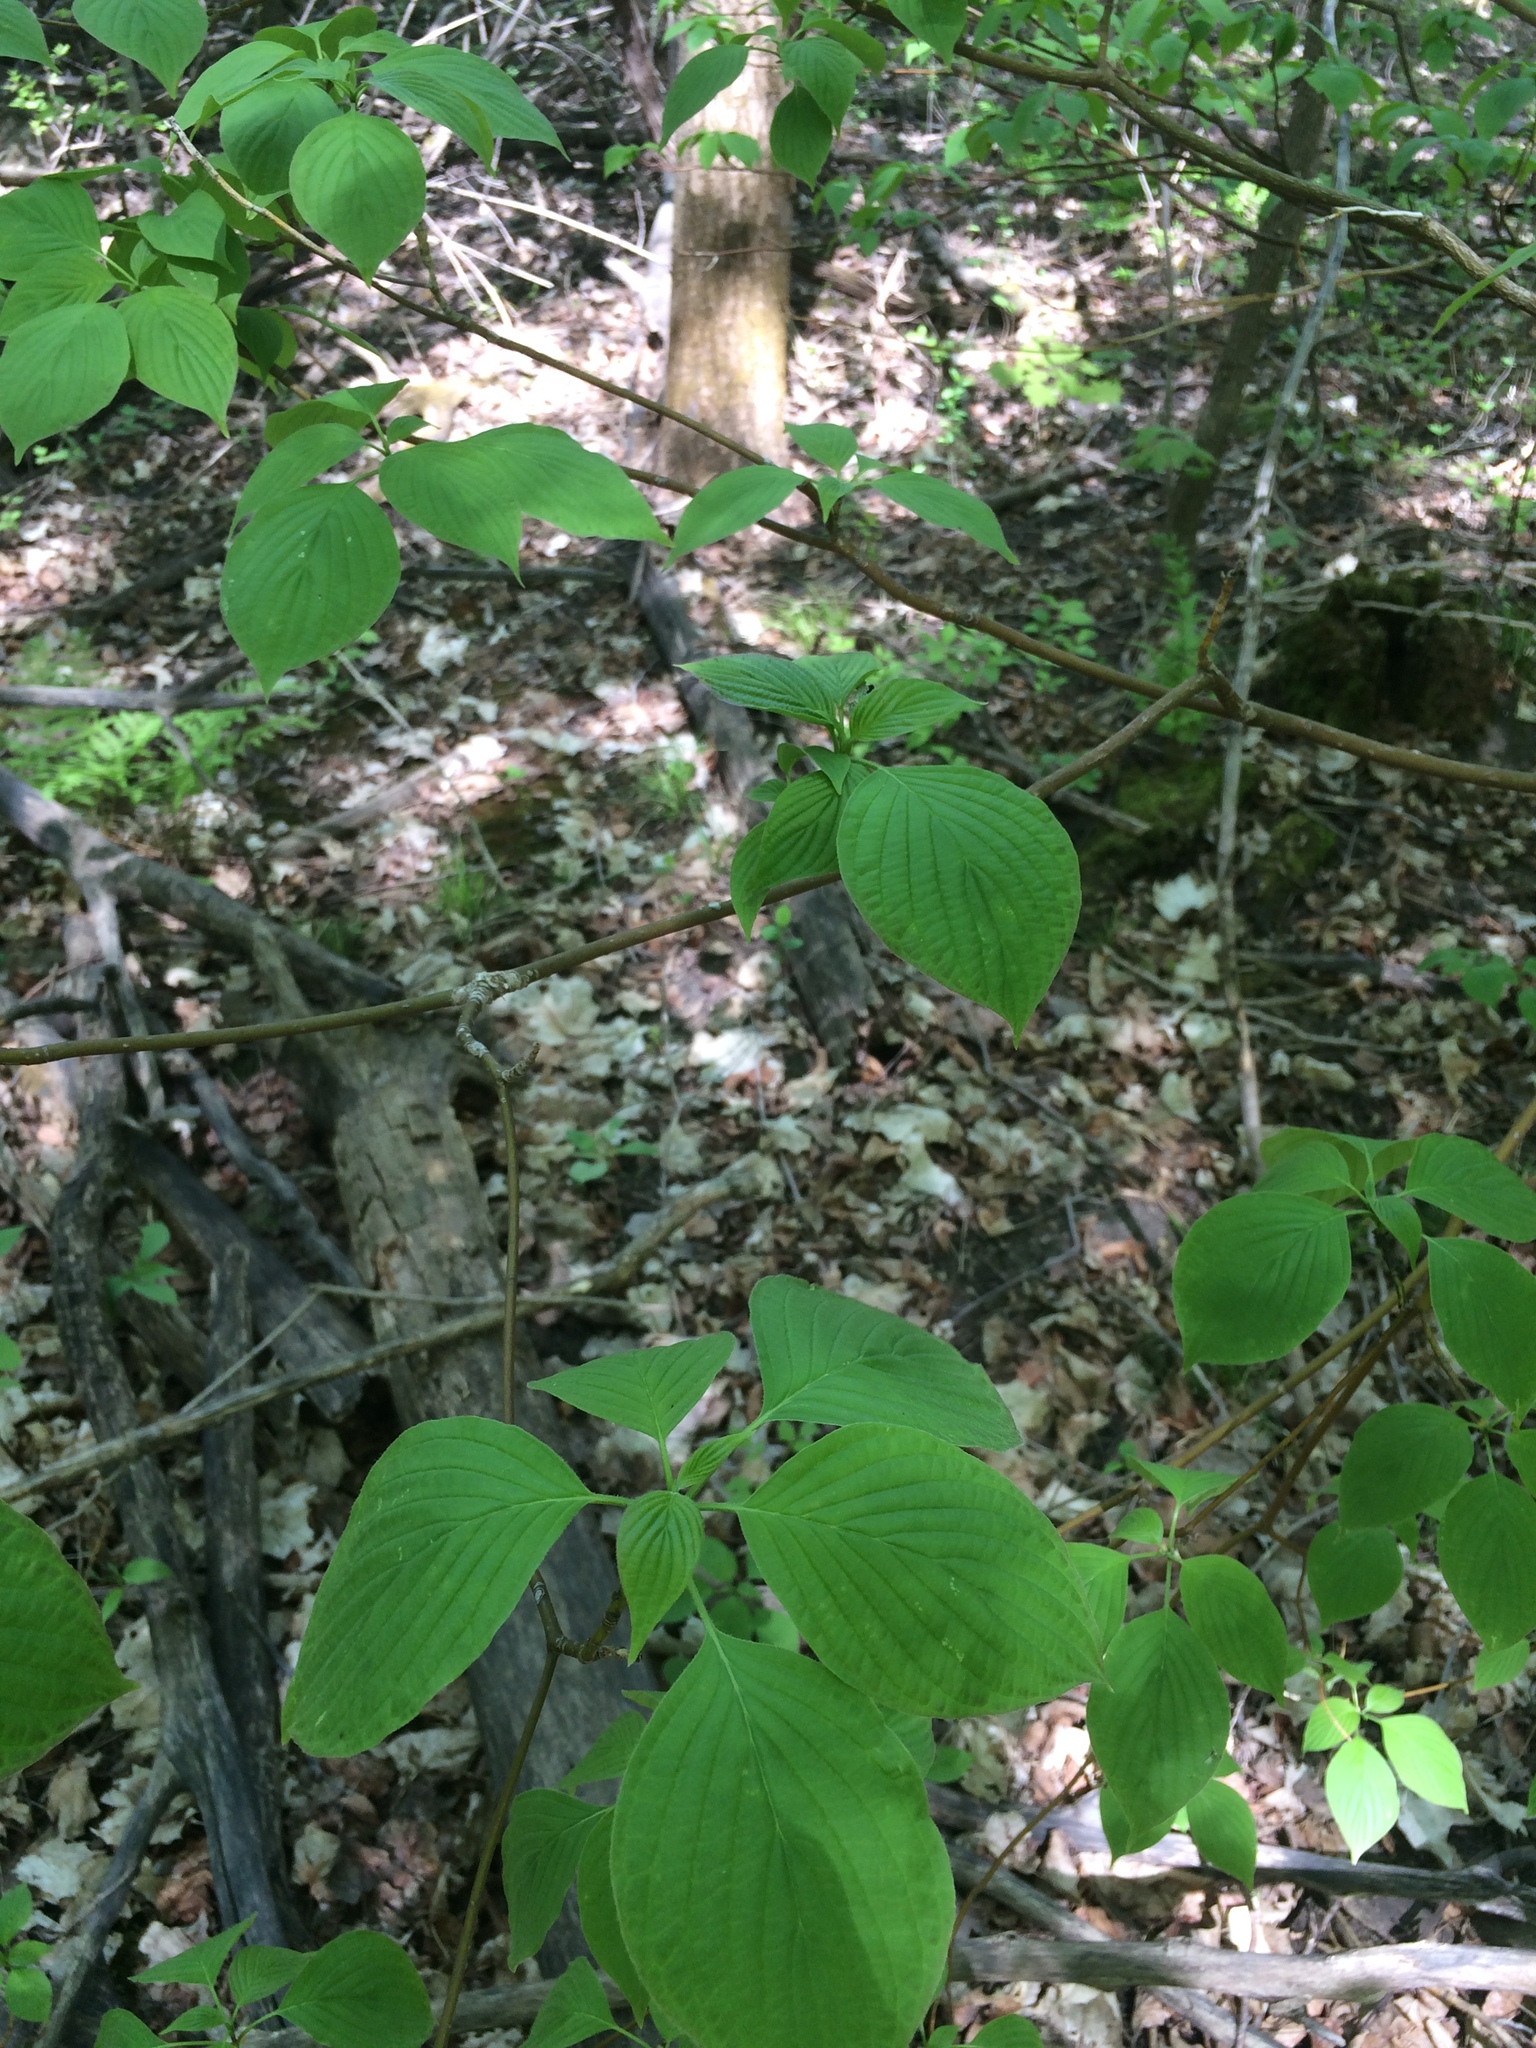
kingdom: Plantae
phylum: Tracheophyta
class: Magnoliopsida
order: Cornales
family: Cornaceae
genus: Cornus
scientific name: Cornus alternifolia
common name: Pagoda dogwood
